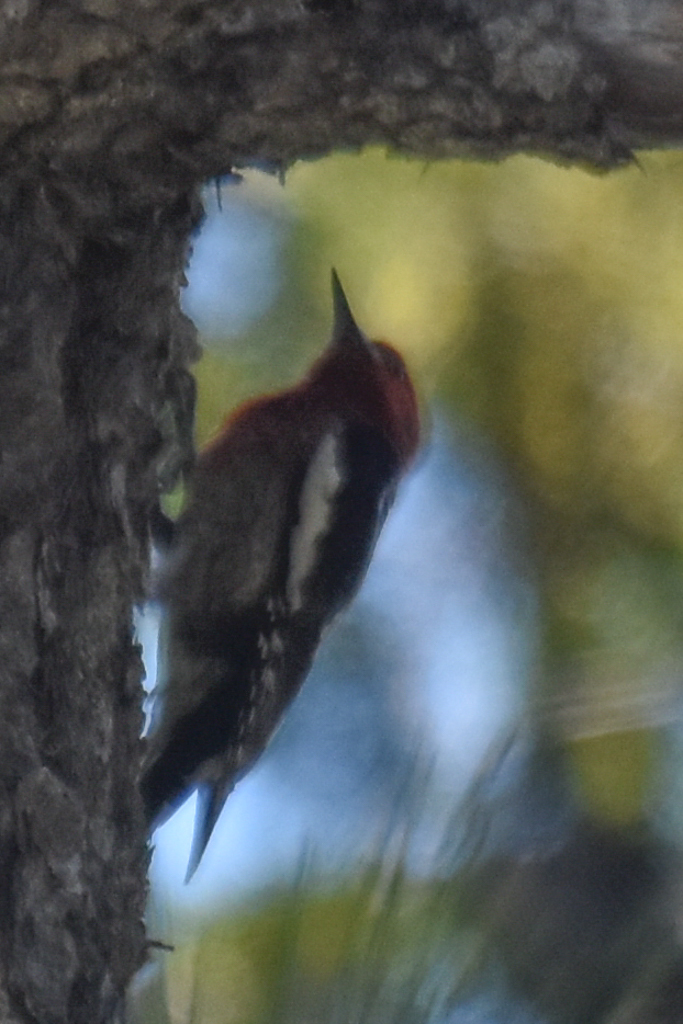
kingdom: Animalia
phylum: Chordata
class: Aves
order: Piciformes
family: Picidae
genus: Sphyrapicus
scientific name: Sphyrapicus ruber
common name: Red-breasted sapsucker
